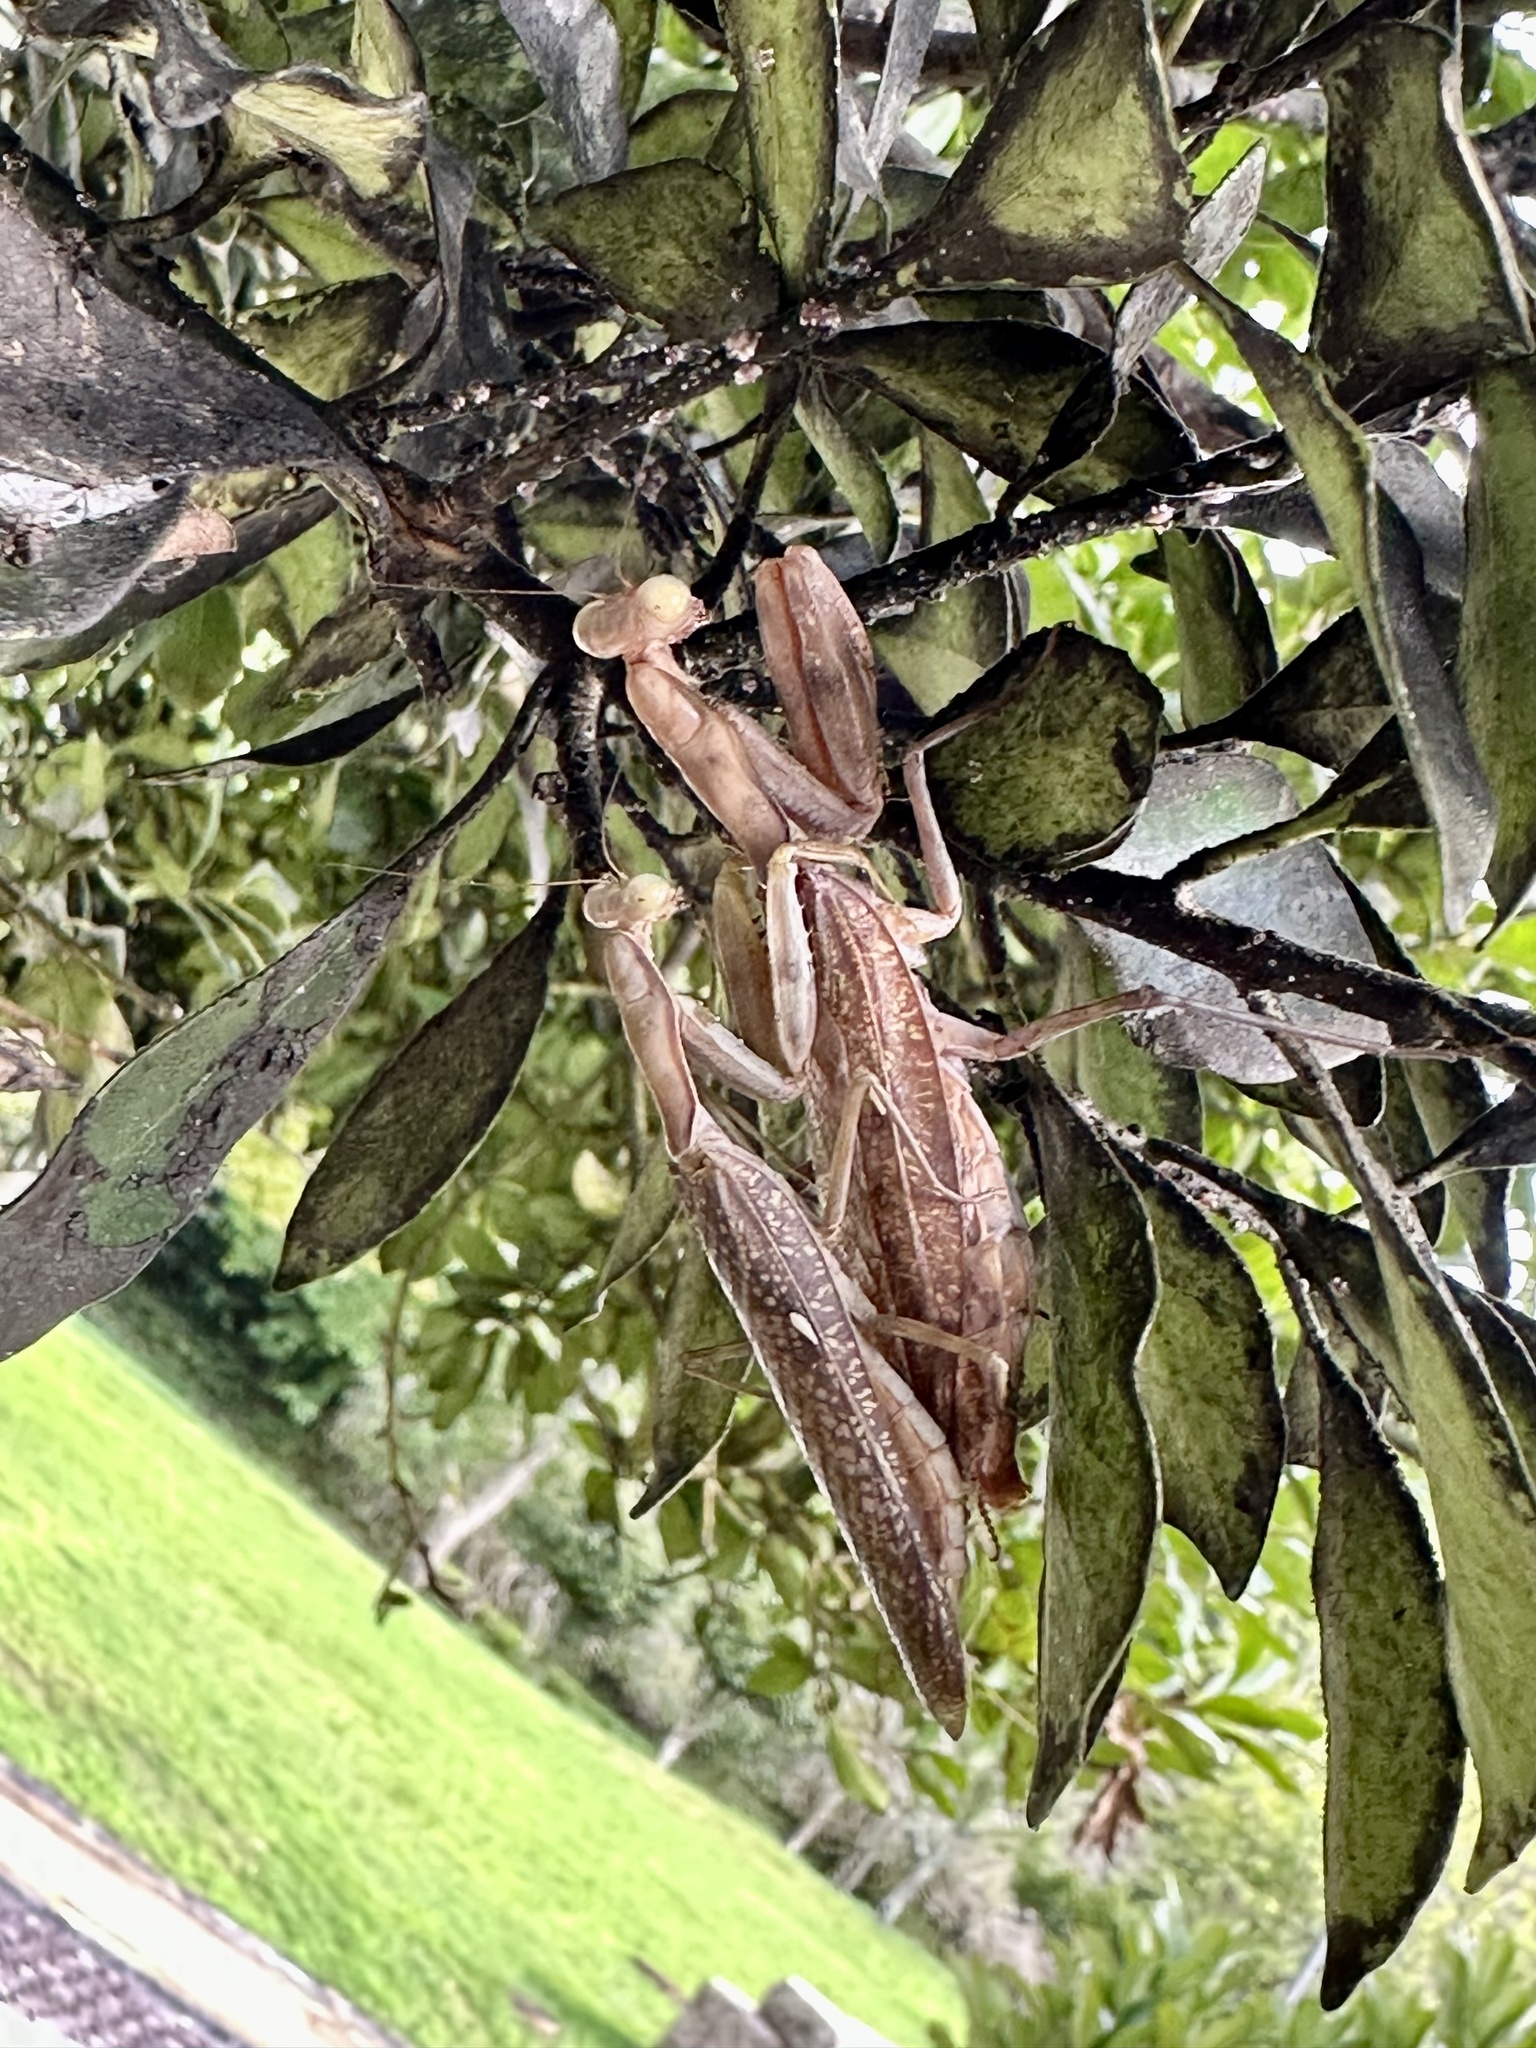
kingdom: Animalia
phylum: Arthropoda
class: Insecta
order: Mantodea
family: Mantidae
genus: Hierodula
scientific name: Hierodula patellifera
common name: Asian mantis
